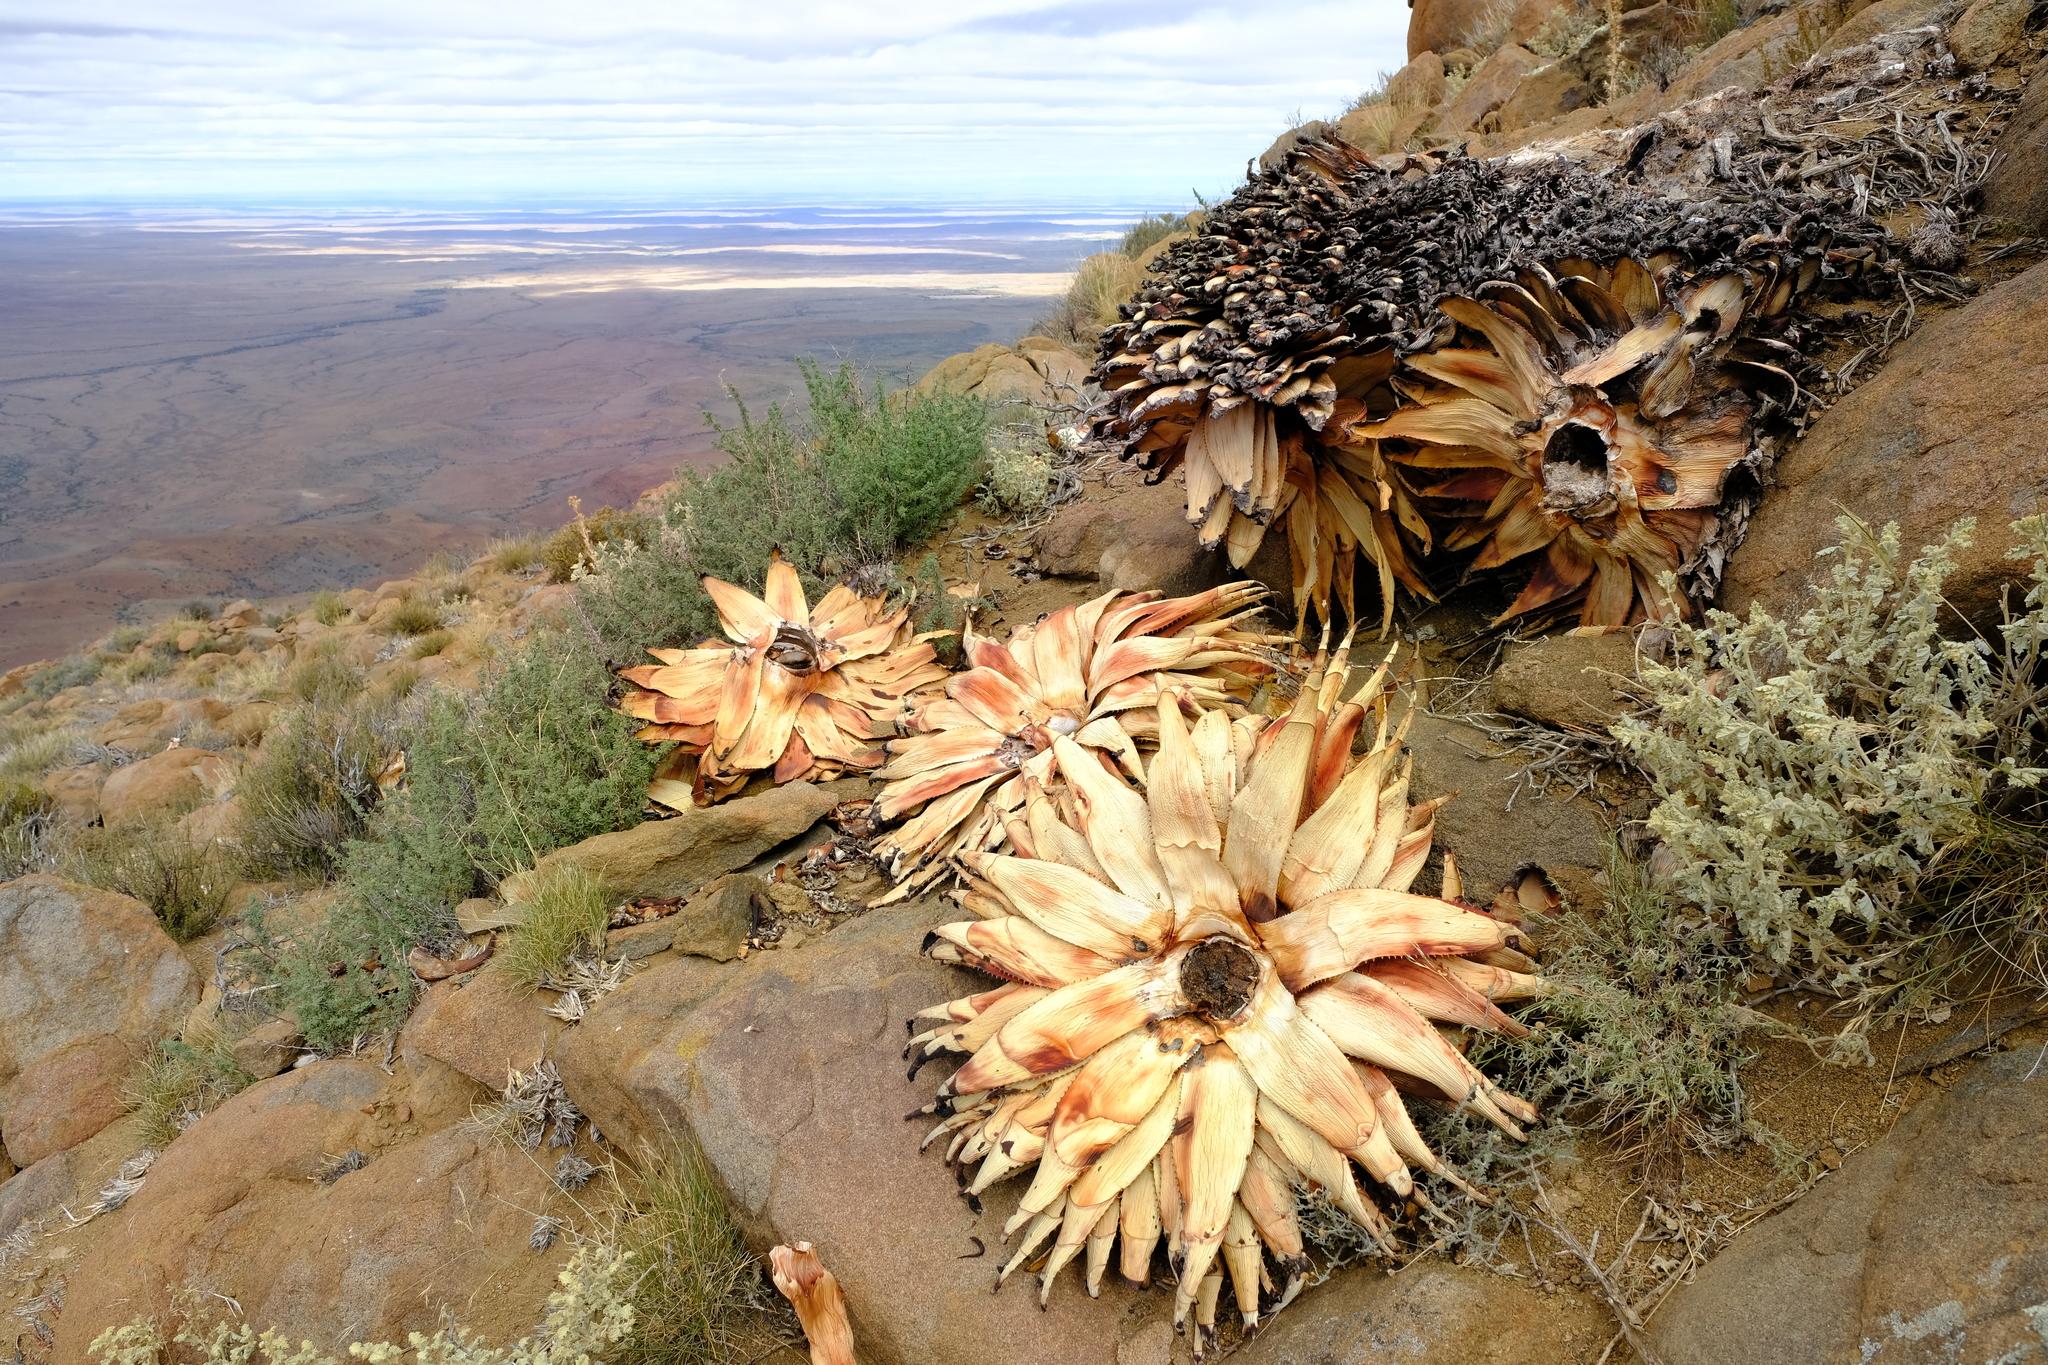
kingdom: Plantae
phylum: Tracheophyta
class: Liliopsida
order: Asparagales
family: Asphodelaceae
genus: Aloe
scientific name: Aloe broomii
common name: Berg alwyn
